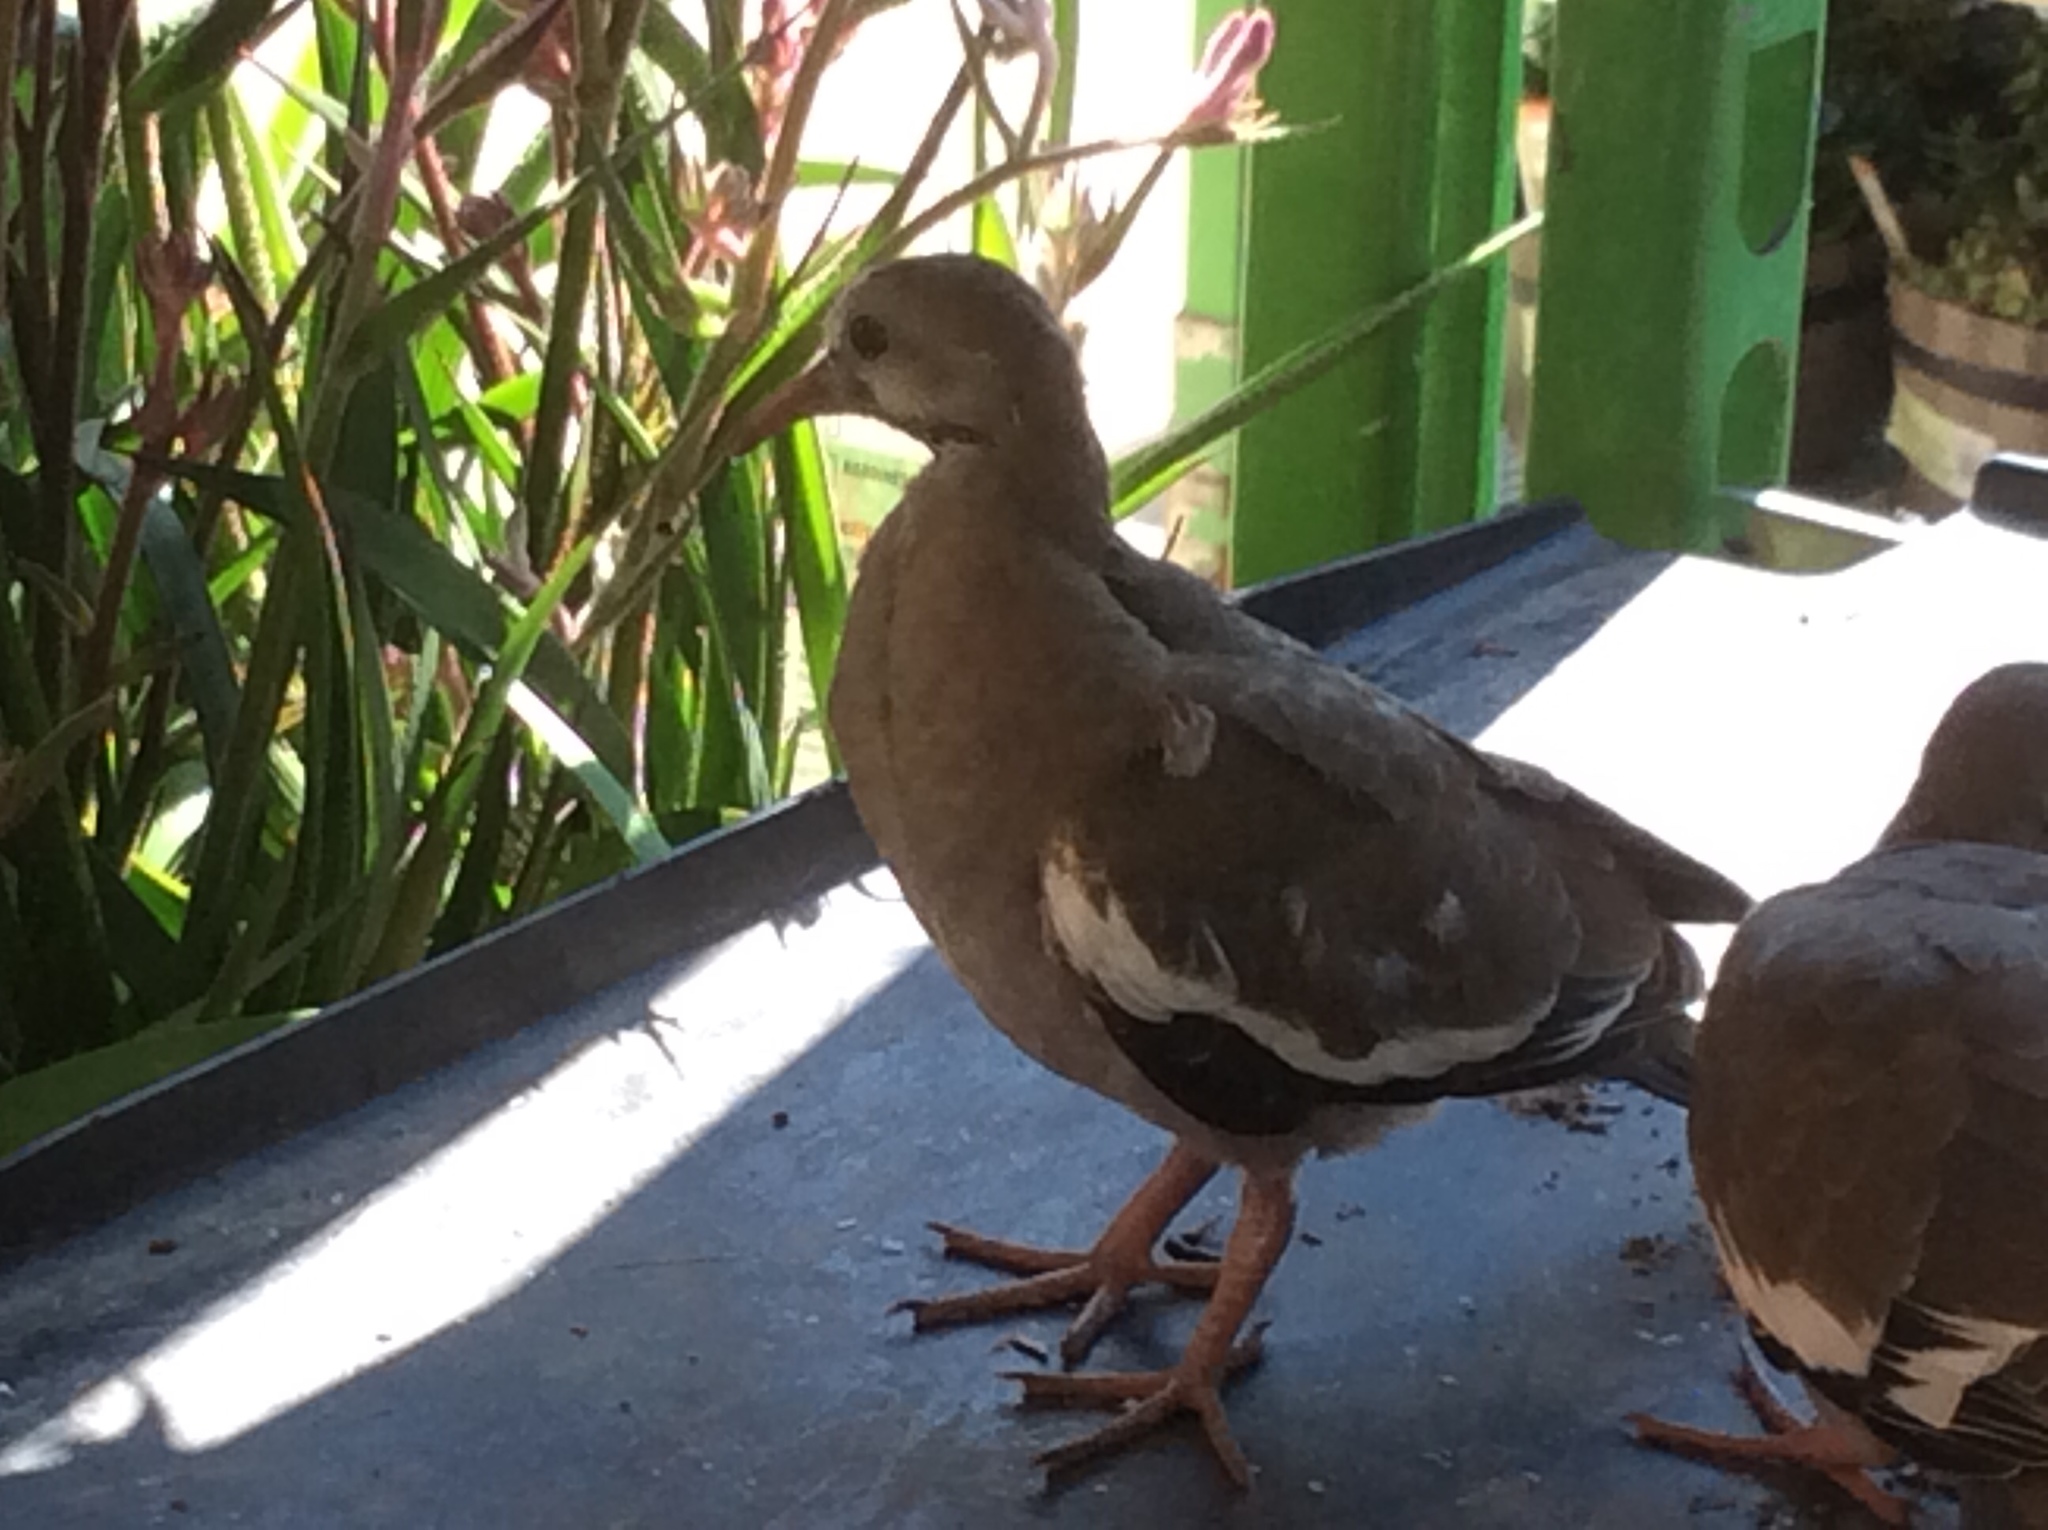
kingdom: Animalia
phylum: Chordata
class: Aves
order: Columbiformes
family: Columbidae
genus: Zenaida
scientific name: Zenaida asiatica
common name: White-winged dove
